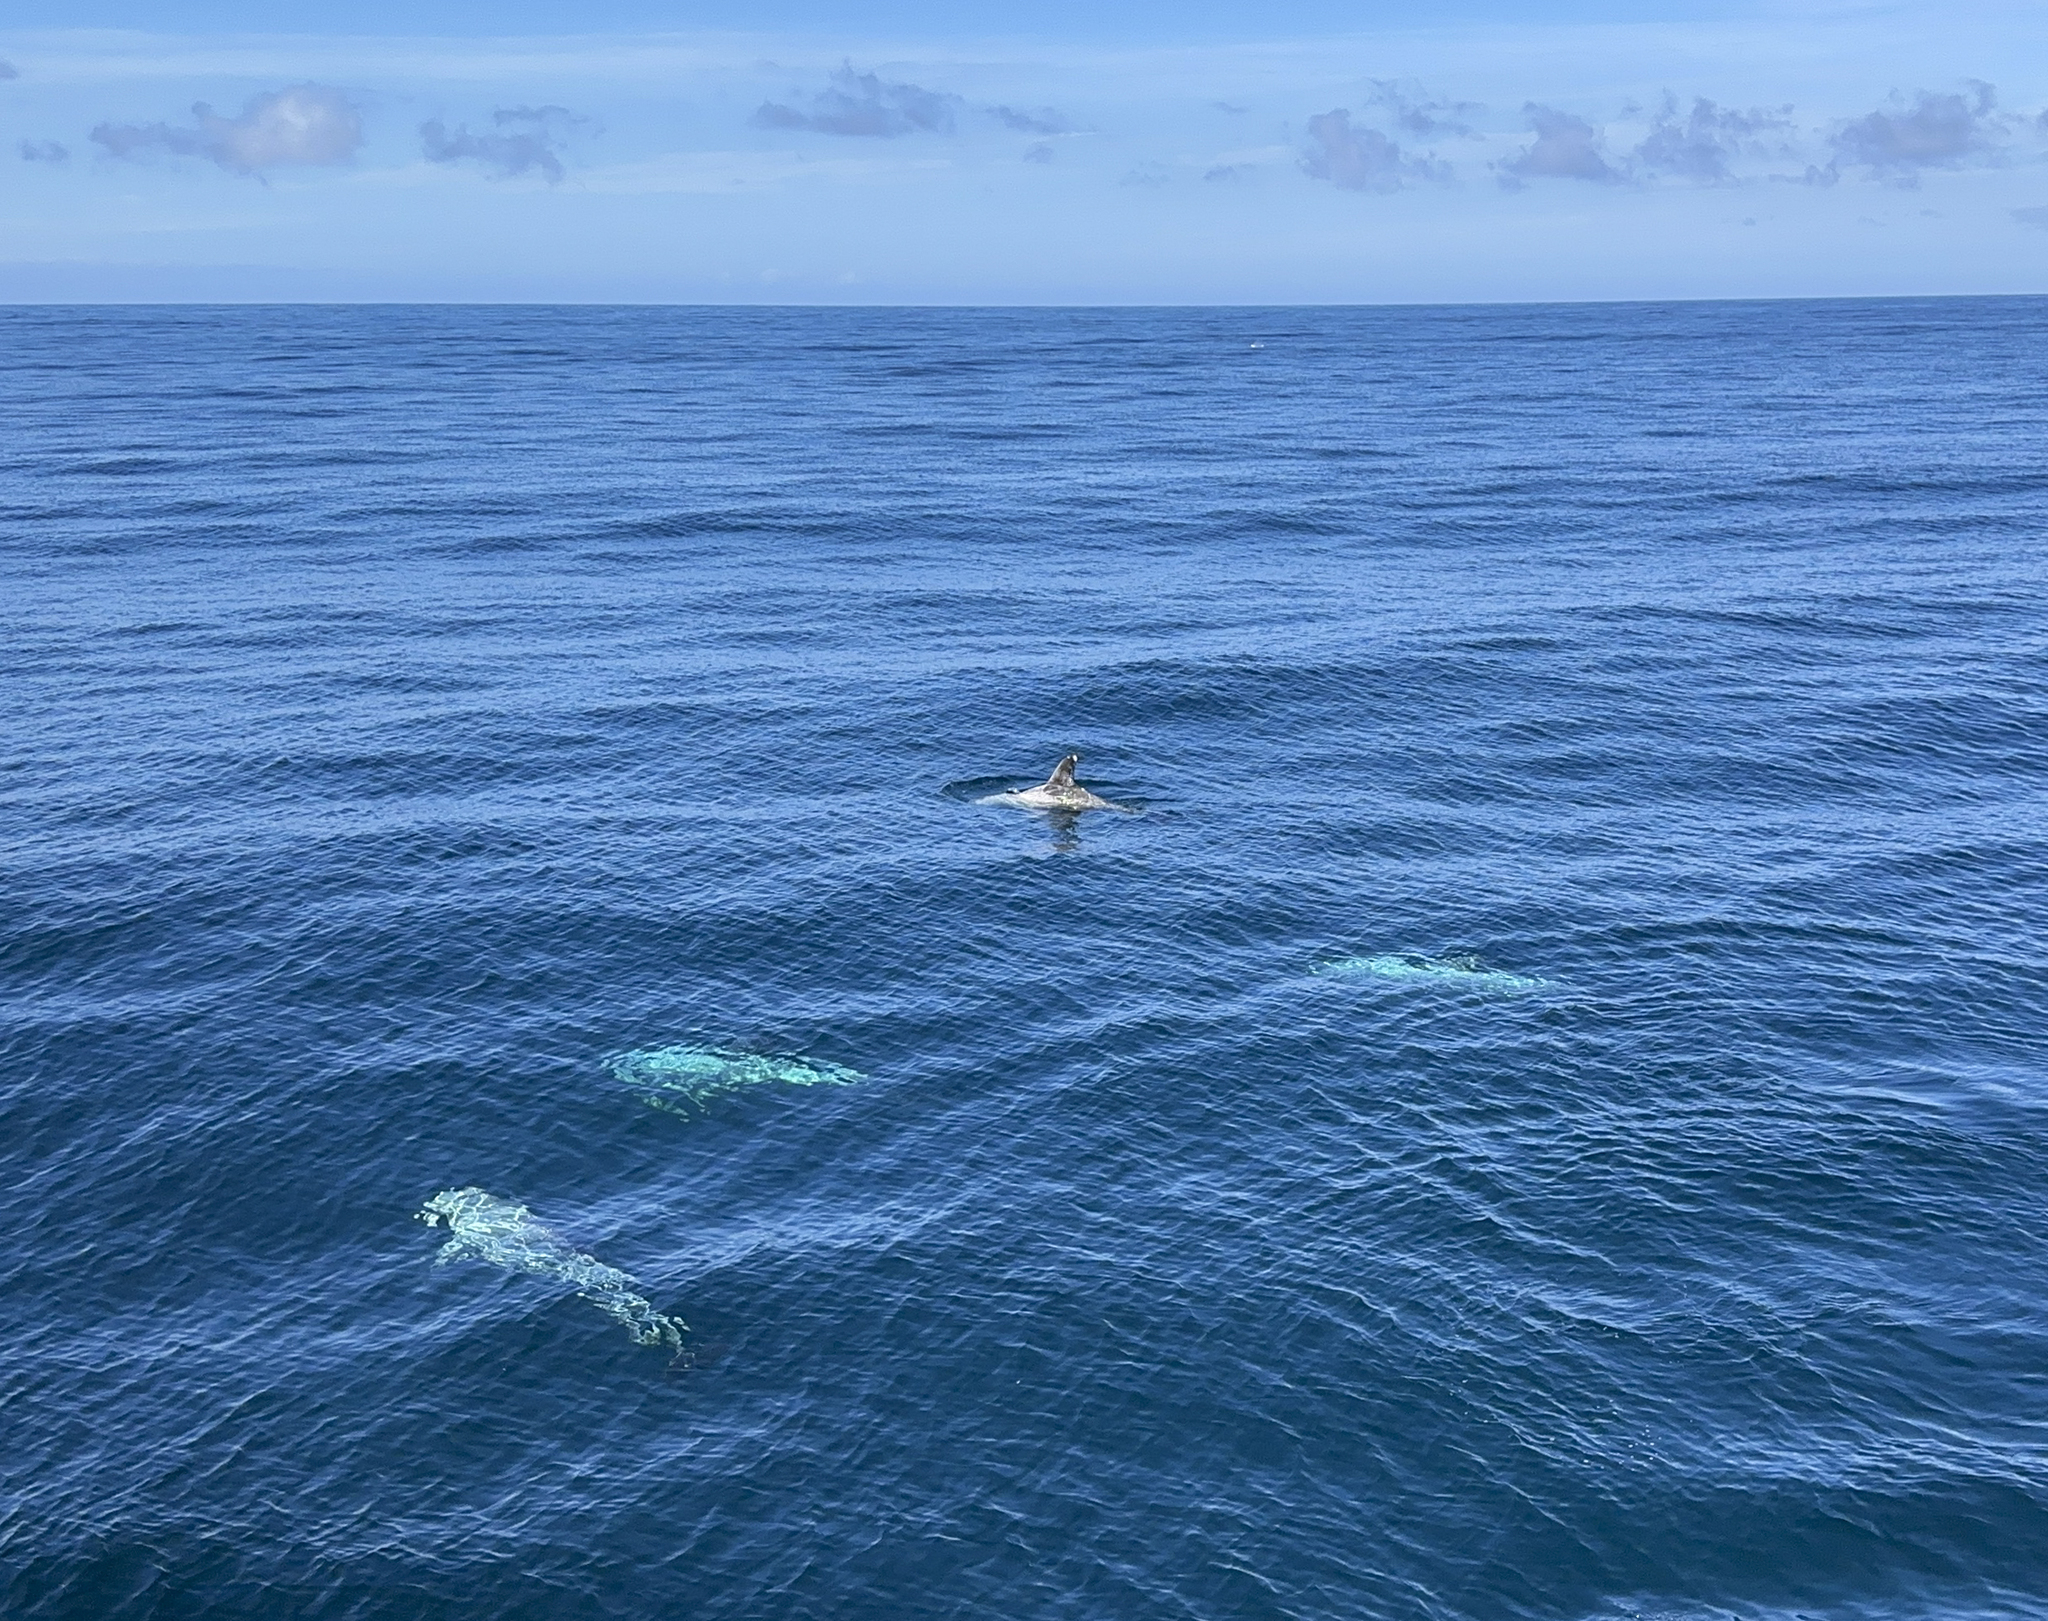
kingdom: Animalia
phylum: Chordata
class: Mammalia
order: Cetacea
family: Delphinidae
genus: Grampus
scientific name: Grampus griseus
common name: Risso's dolphin
